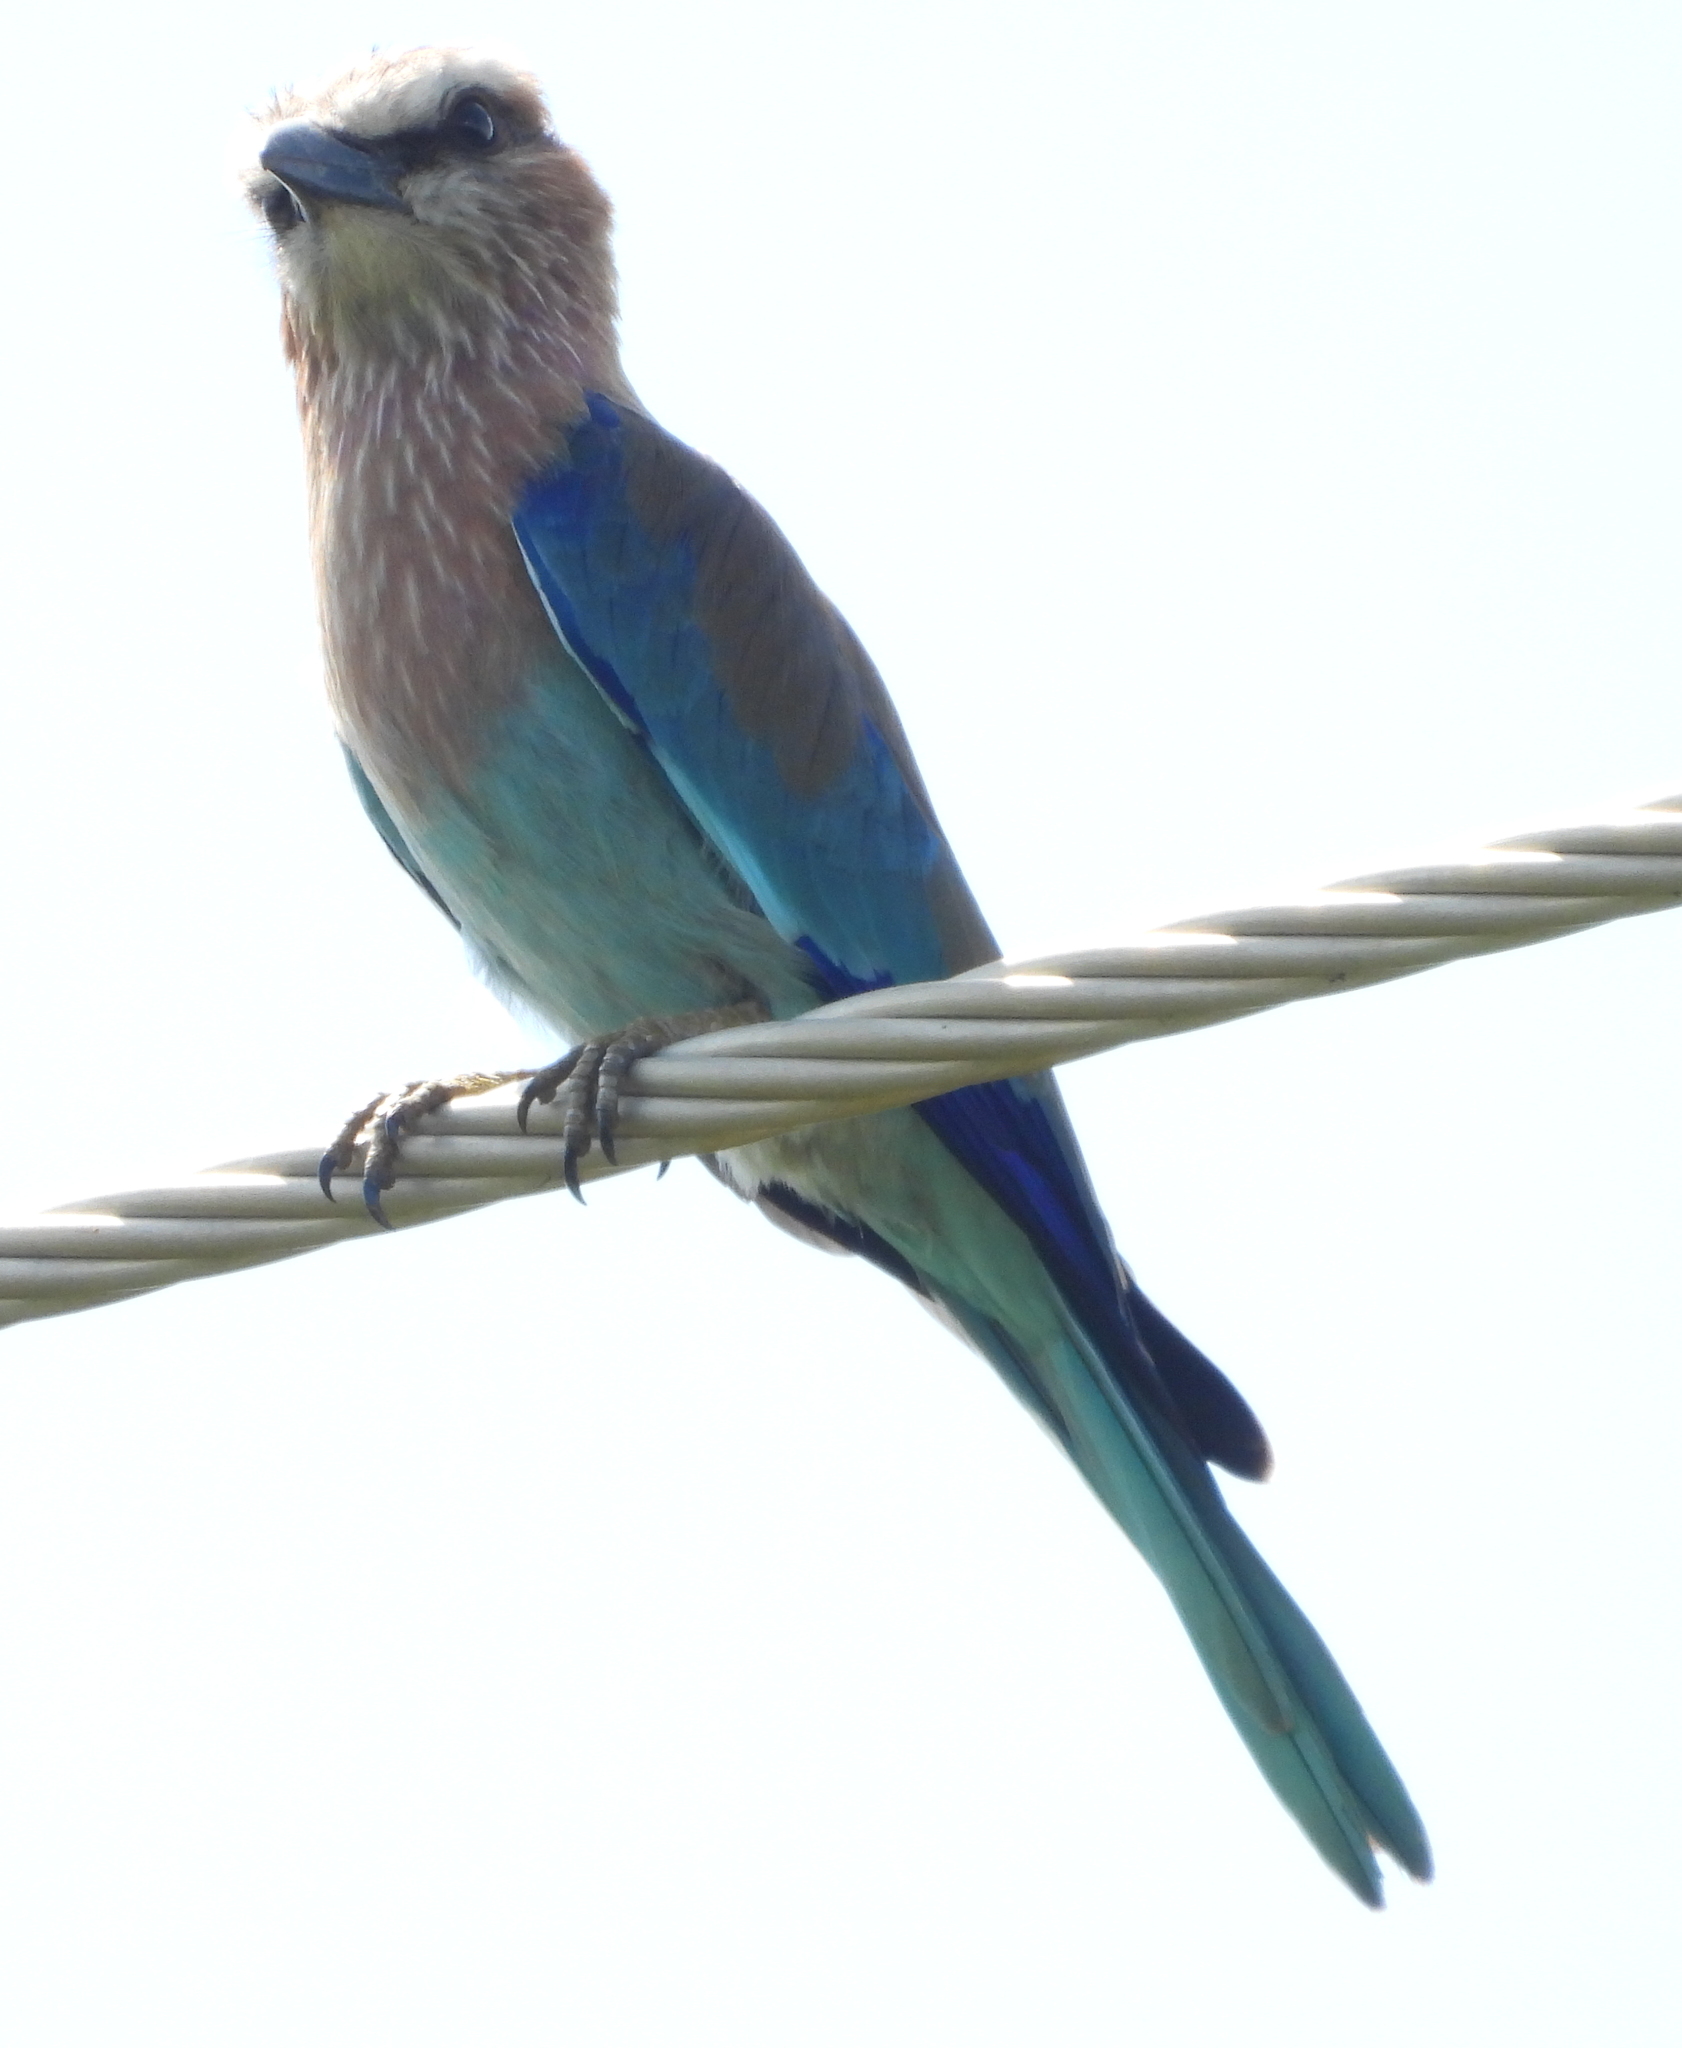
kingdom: Animalia
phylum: Chordata
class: Aves
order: Coraciiformes
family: Coraciidae
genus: Coracias
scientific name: Coracias caudatus
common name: Lilac-breasted roller
